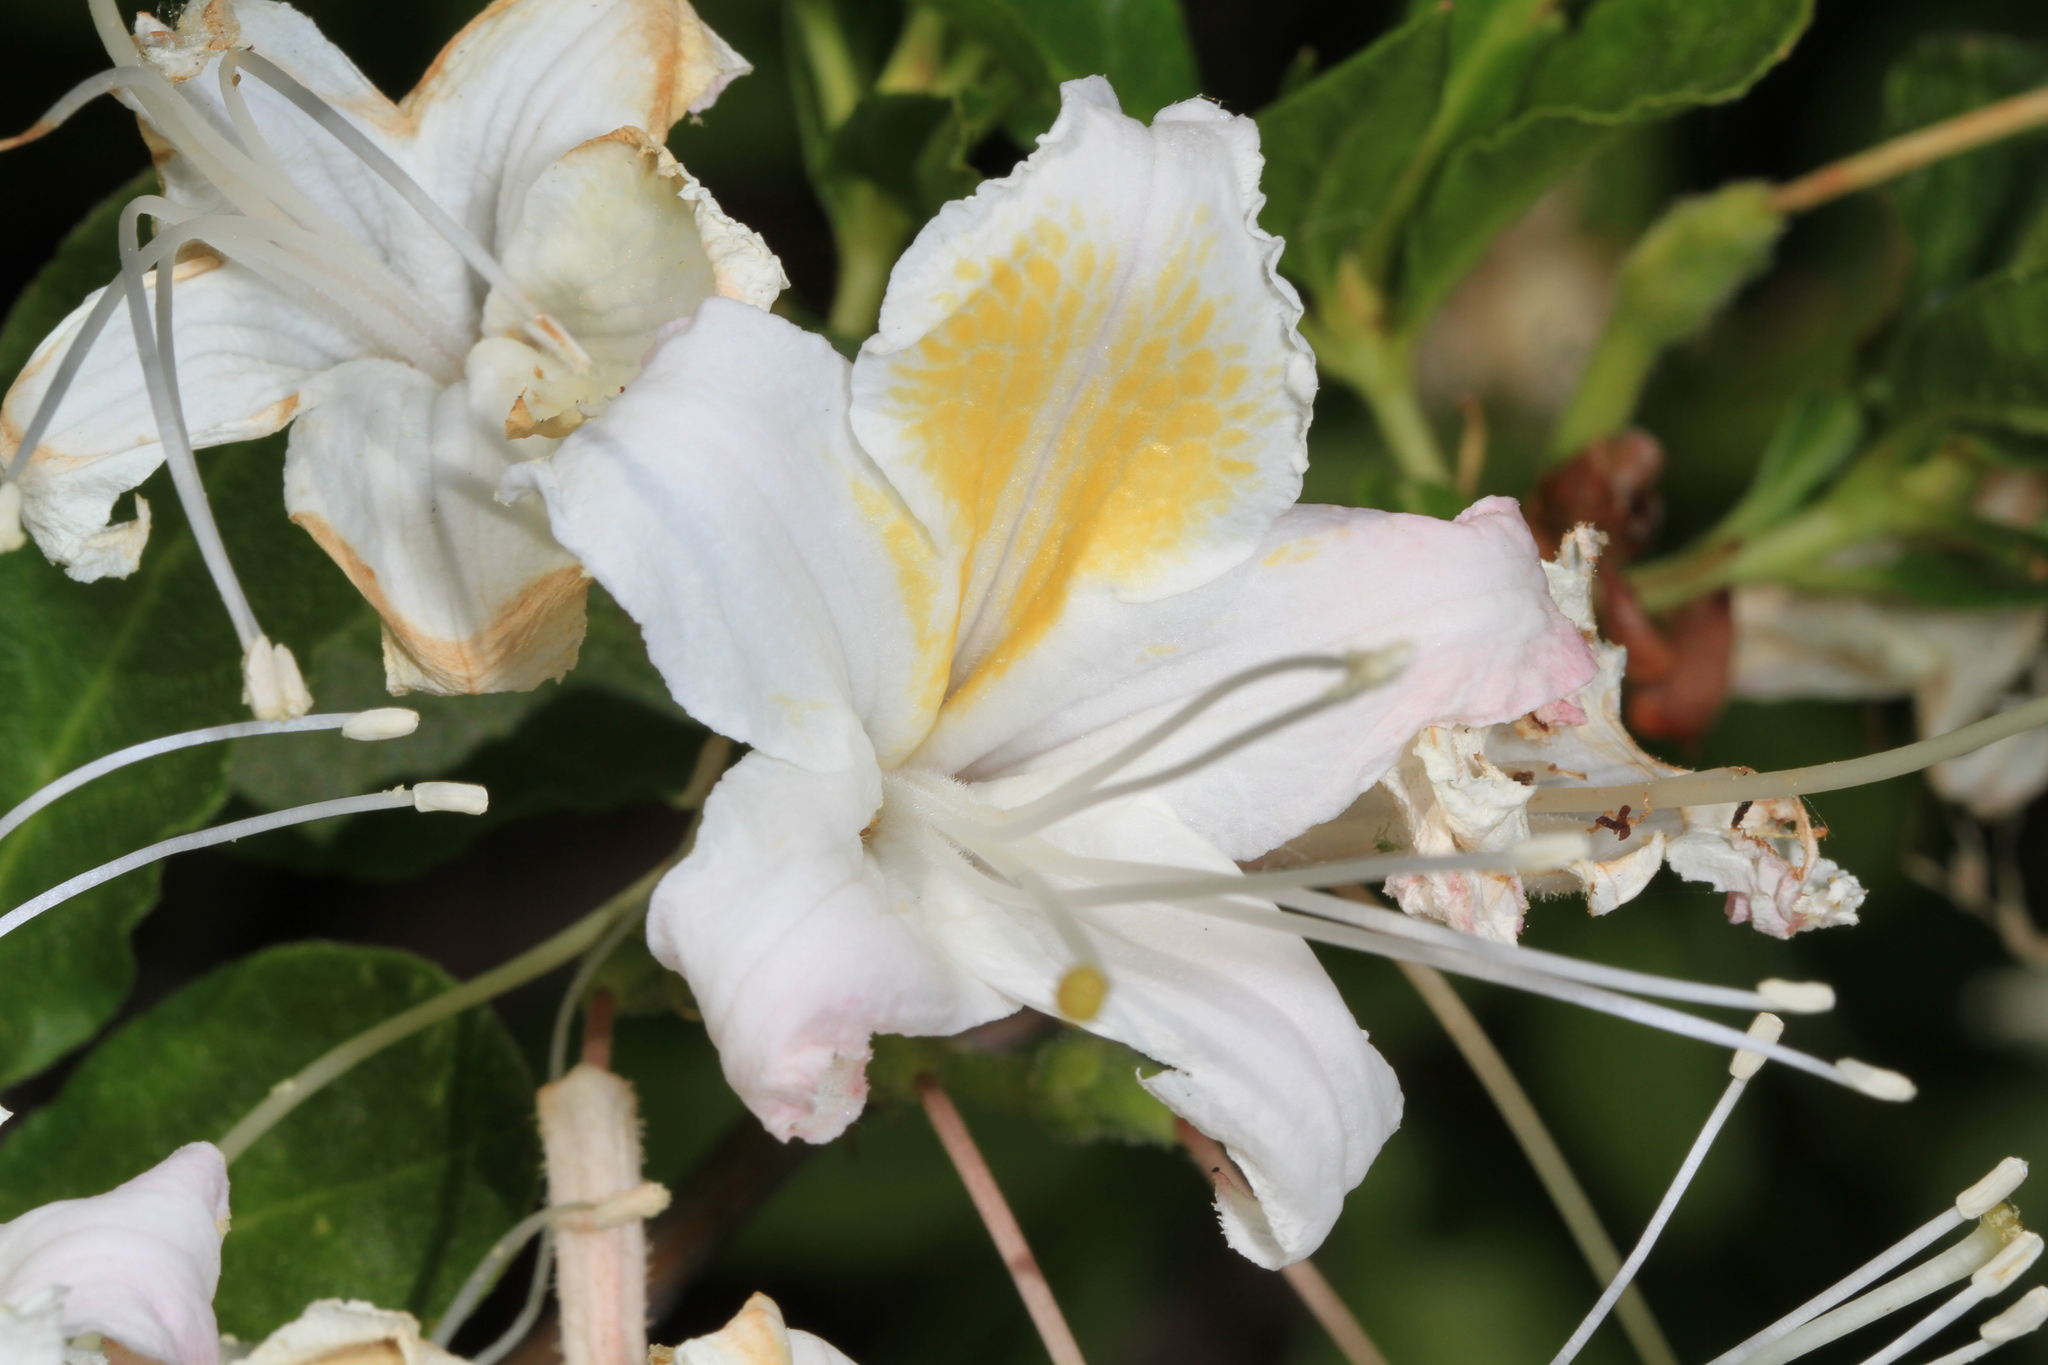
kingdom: Plantae
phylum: Tracheophyta
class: Magnoliopsida
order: Ericales
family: Ericaceae
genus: Rhododendron
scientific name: Rhododendron occidentale
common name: Western azalea
